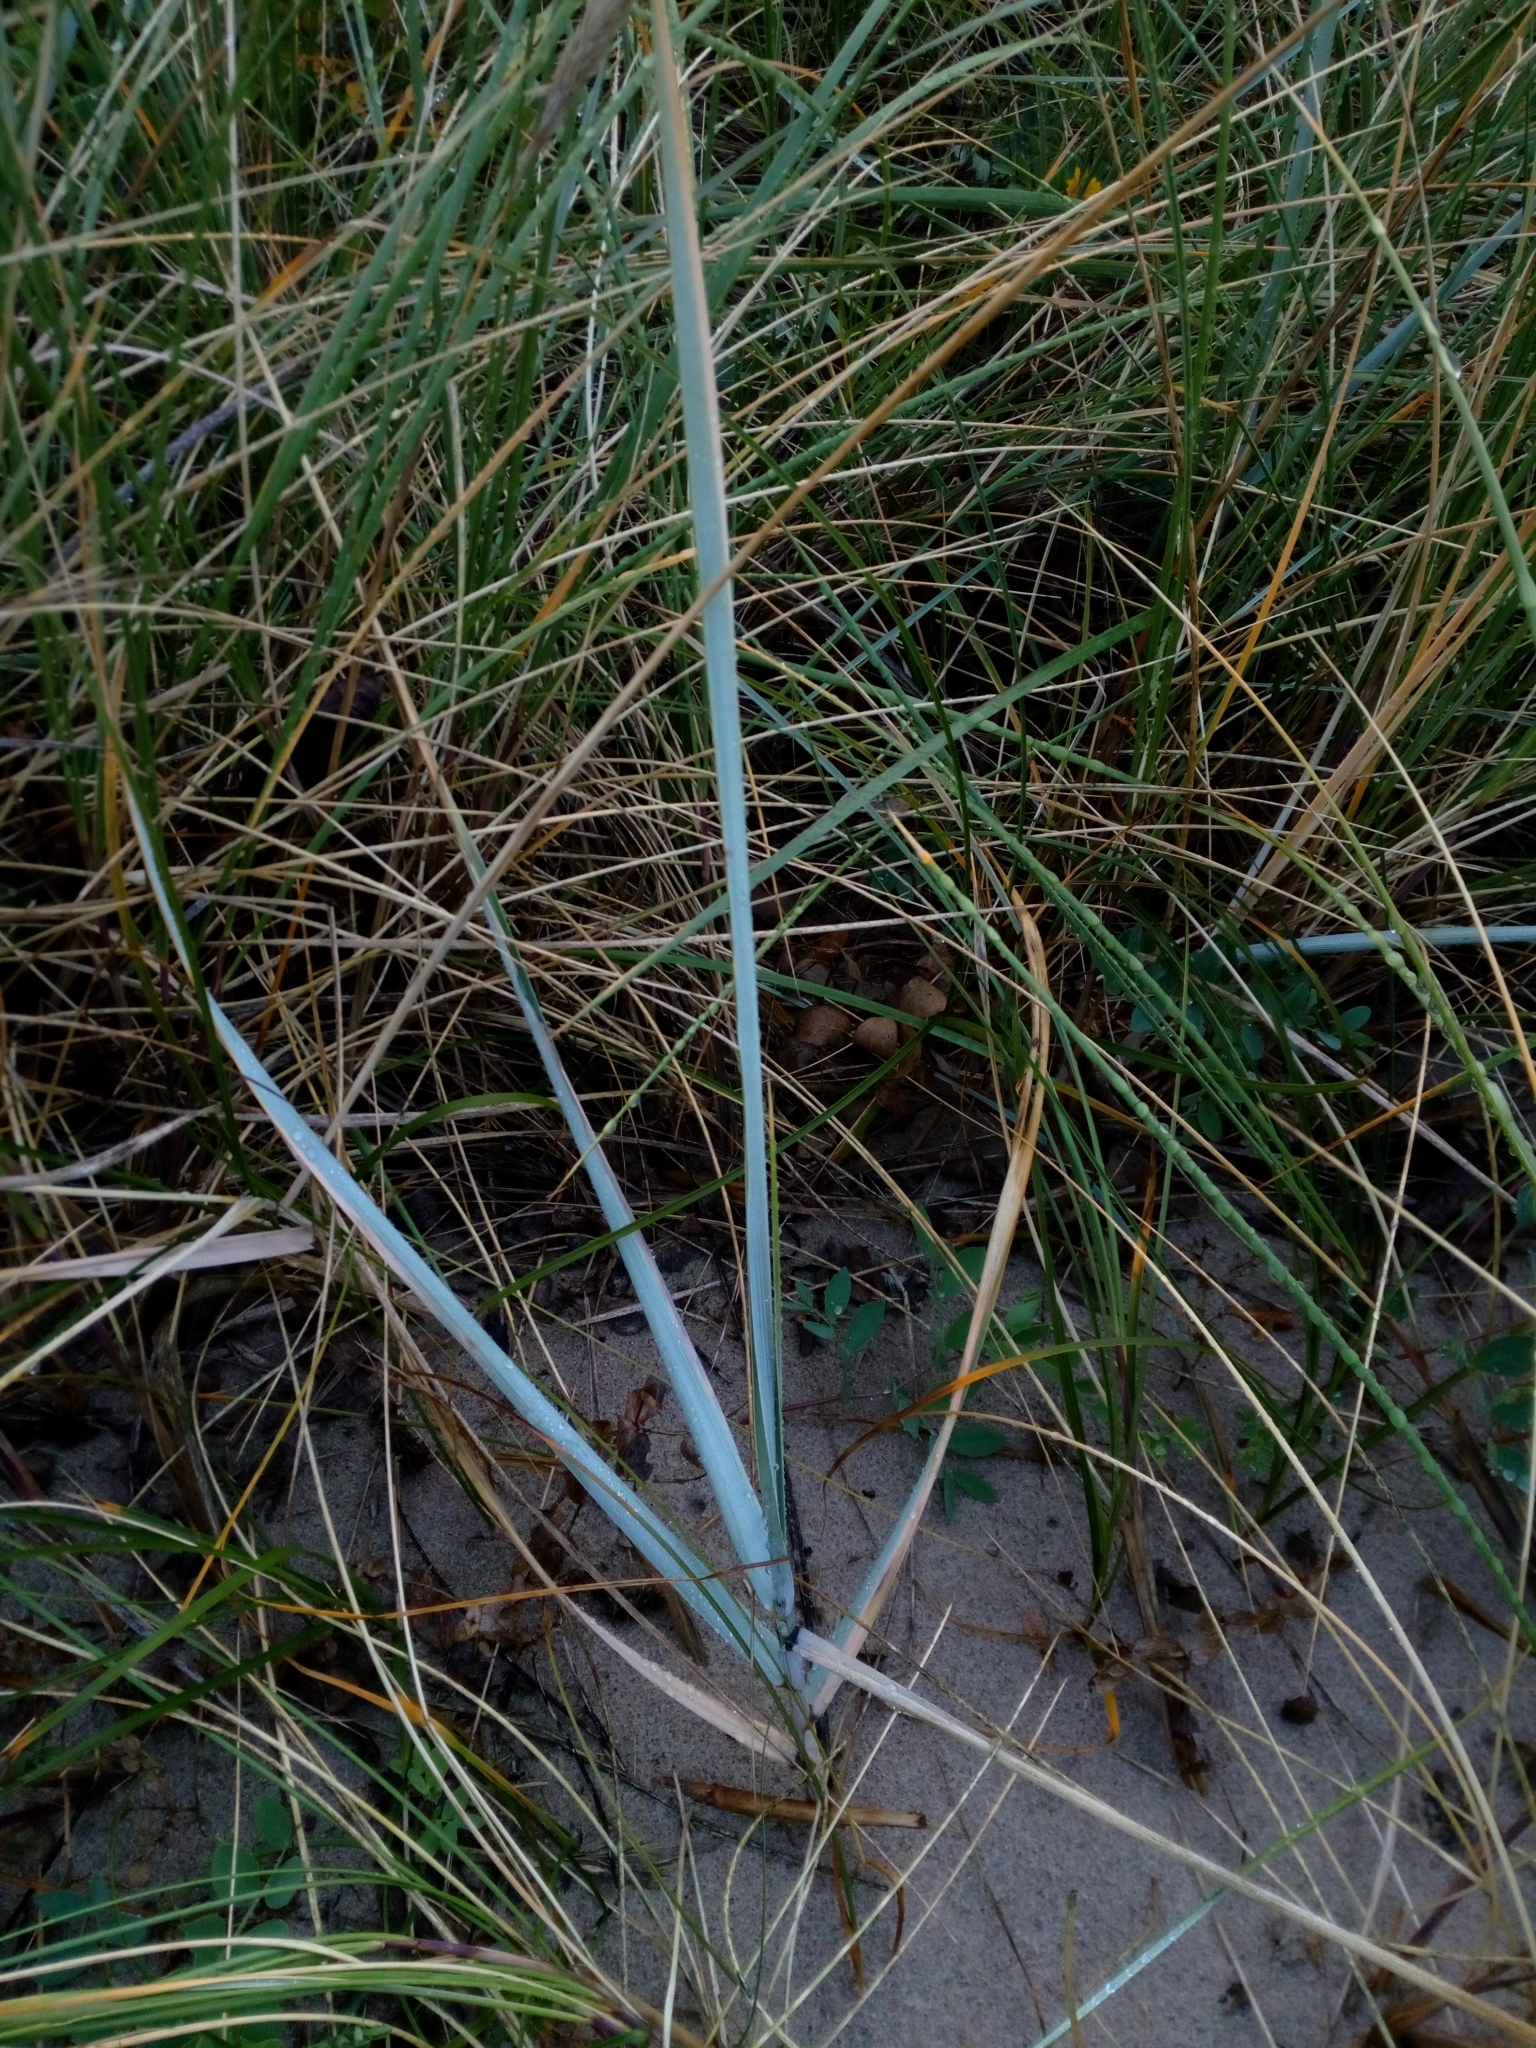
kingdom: Plantae
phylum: Tracheophyta
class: Liliopsida
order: Poales
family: Poaceae
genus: Leymus
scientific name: Leymus arenarius
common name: Lyme-grass
